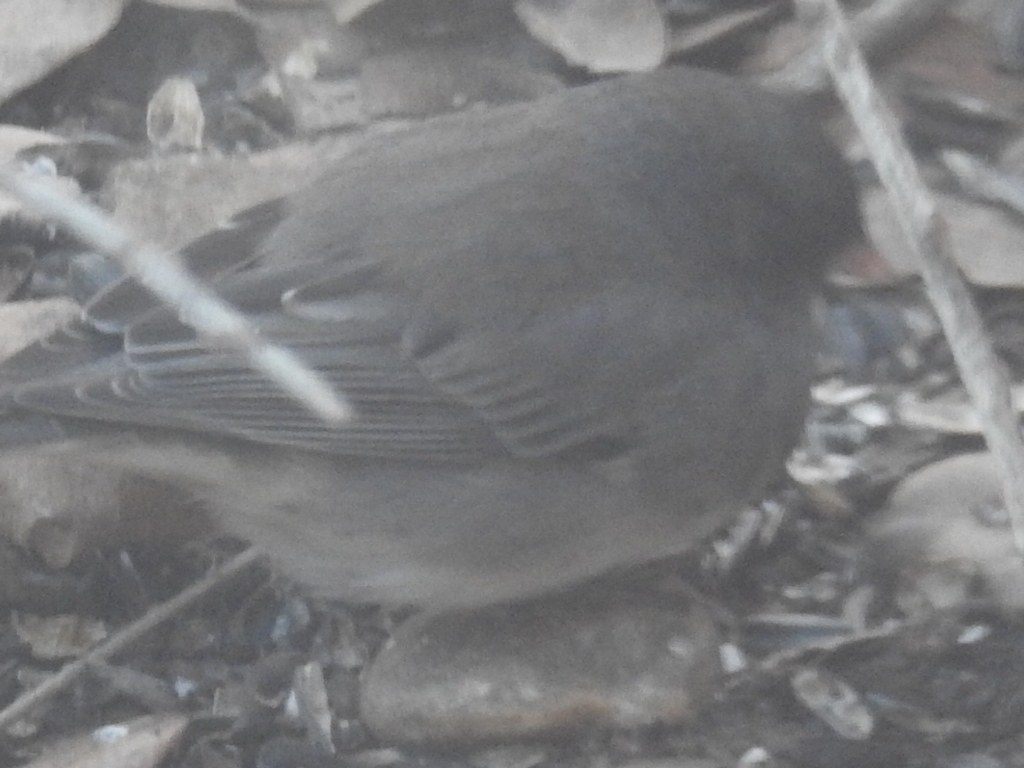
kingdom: Animalia
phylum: Chordata
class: Aves
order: Passeriformes
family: Passerellidae
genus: Junco
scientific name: Junco hyemalis
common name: Dark-eyed junco
